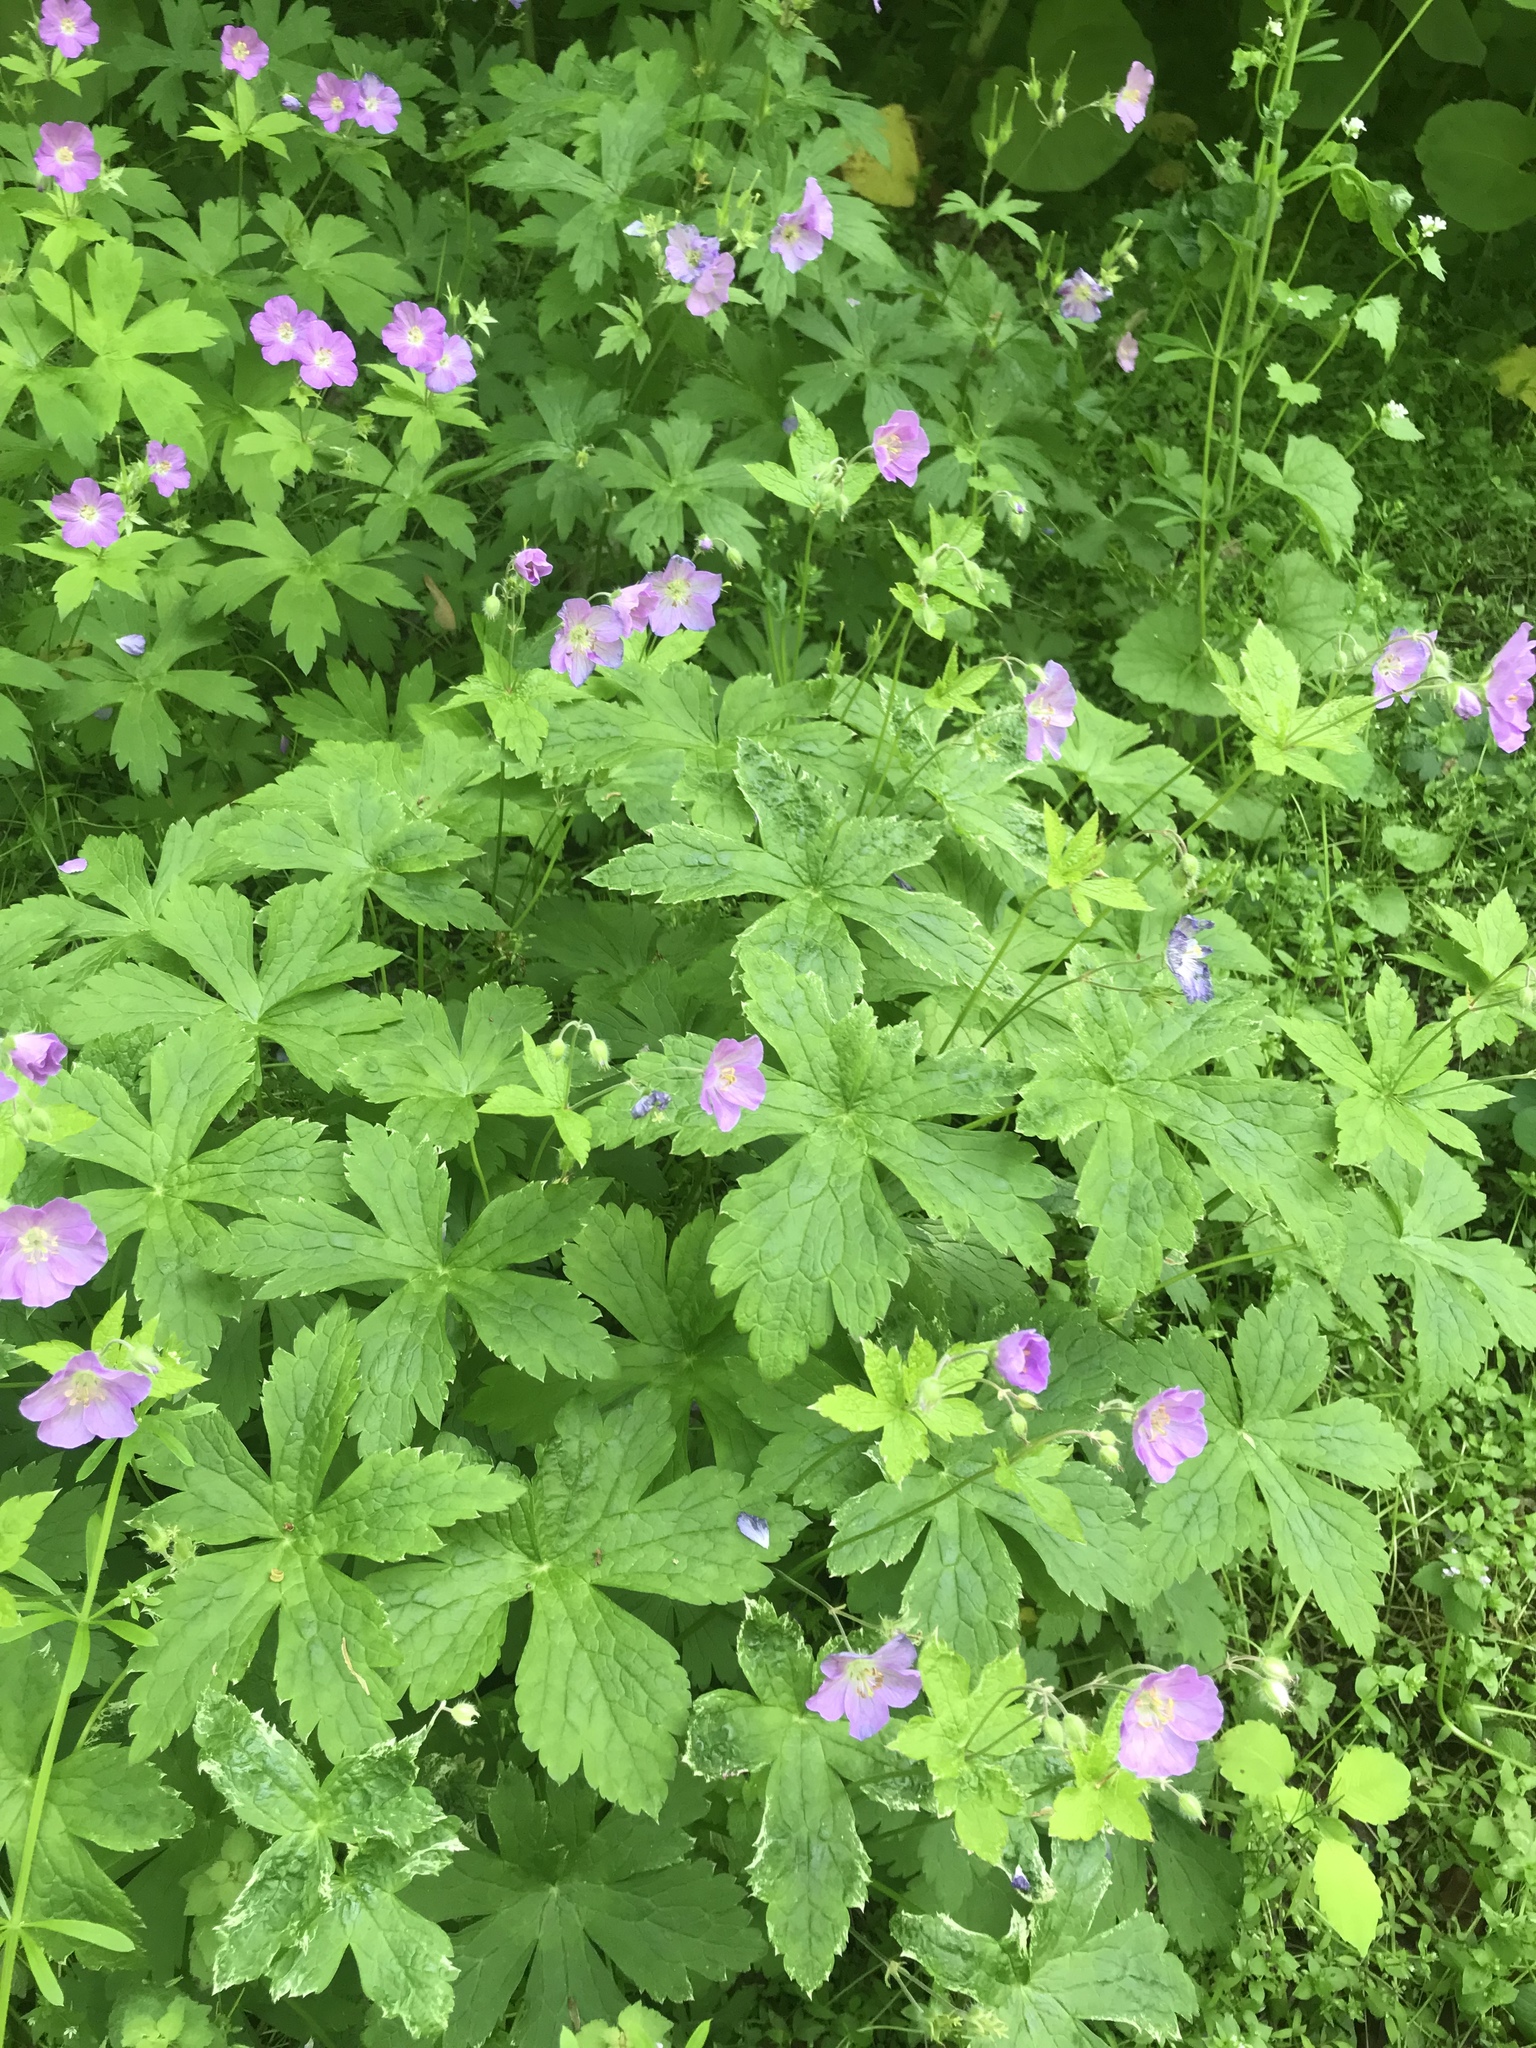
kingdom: Plantae
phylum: Tracheophyta
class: Magnoliopsida
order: Geraniales
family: Geraniaceae
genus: Geranium
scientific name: Geranium maculatum
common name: Spotted geranium
